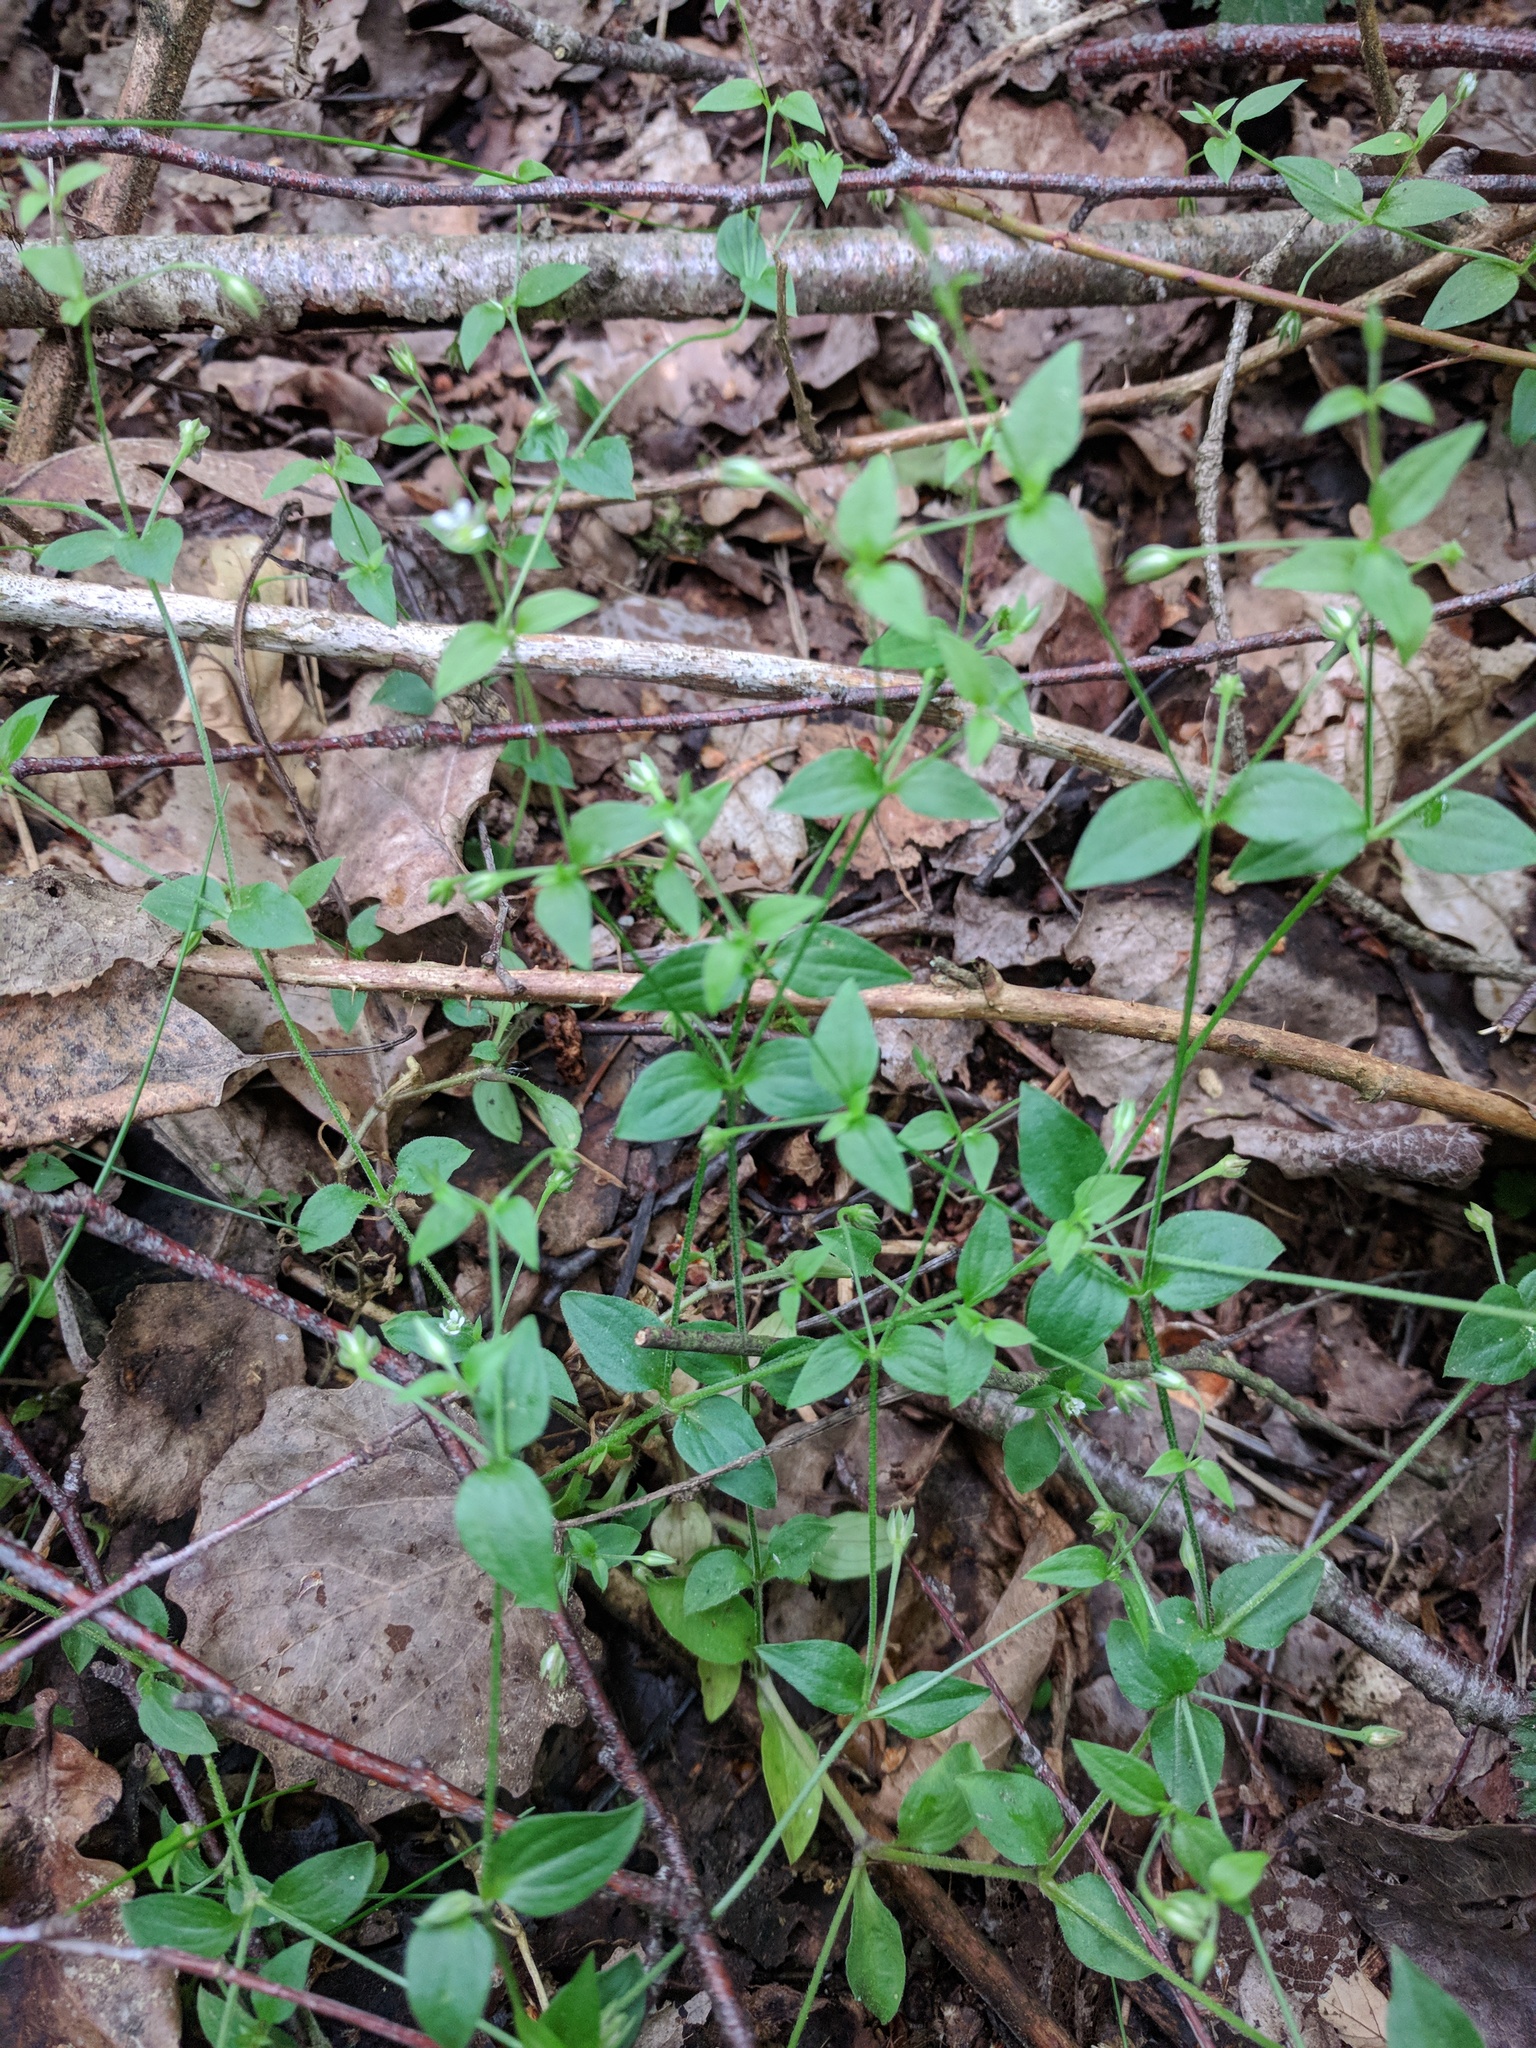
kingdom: Plantae
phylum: Tracheophyta
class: Magnoliopsida
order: Caryophyllales
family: Caryophyllaceae
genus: Moehringia
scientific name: Moehringia trinervia
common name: Three-nerved sandwort
